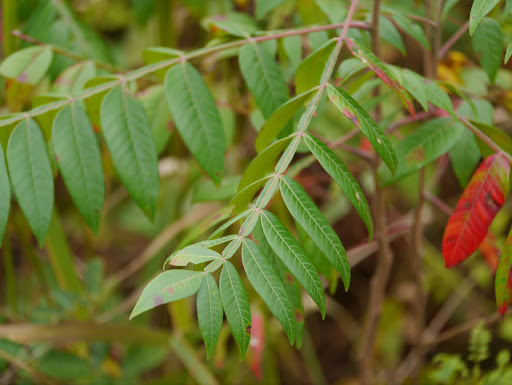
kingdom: Plantae
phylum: Tracheophyta
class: Magnoliopsida
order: Sapindales
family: Anacardiaceae
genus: Rhus
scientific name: Rhus copallina
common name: Shining sumac
